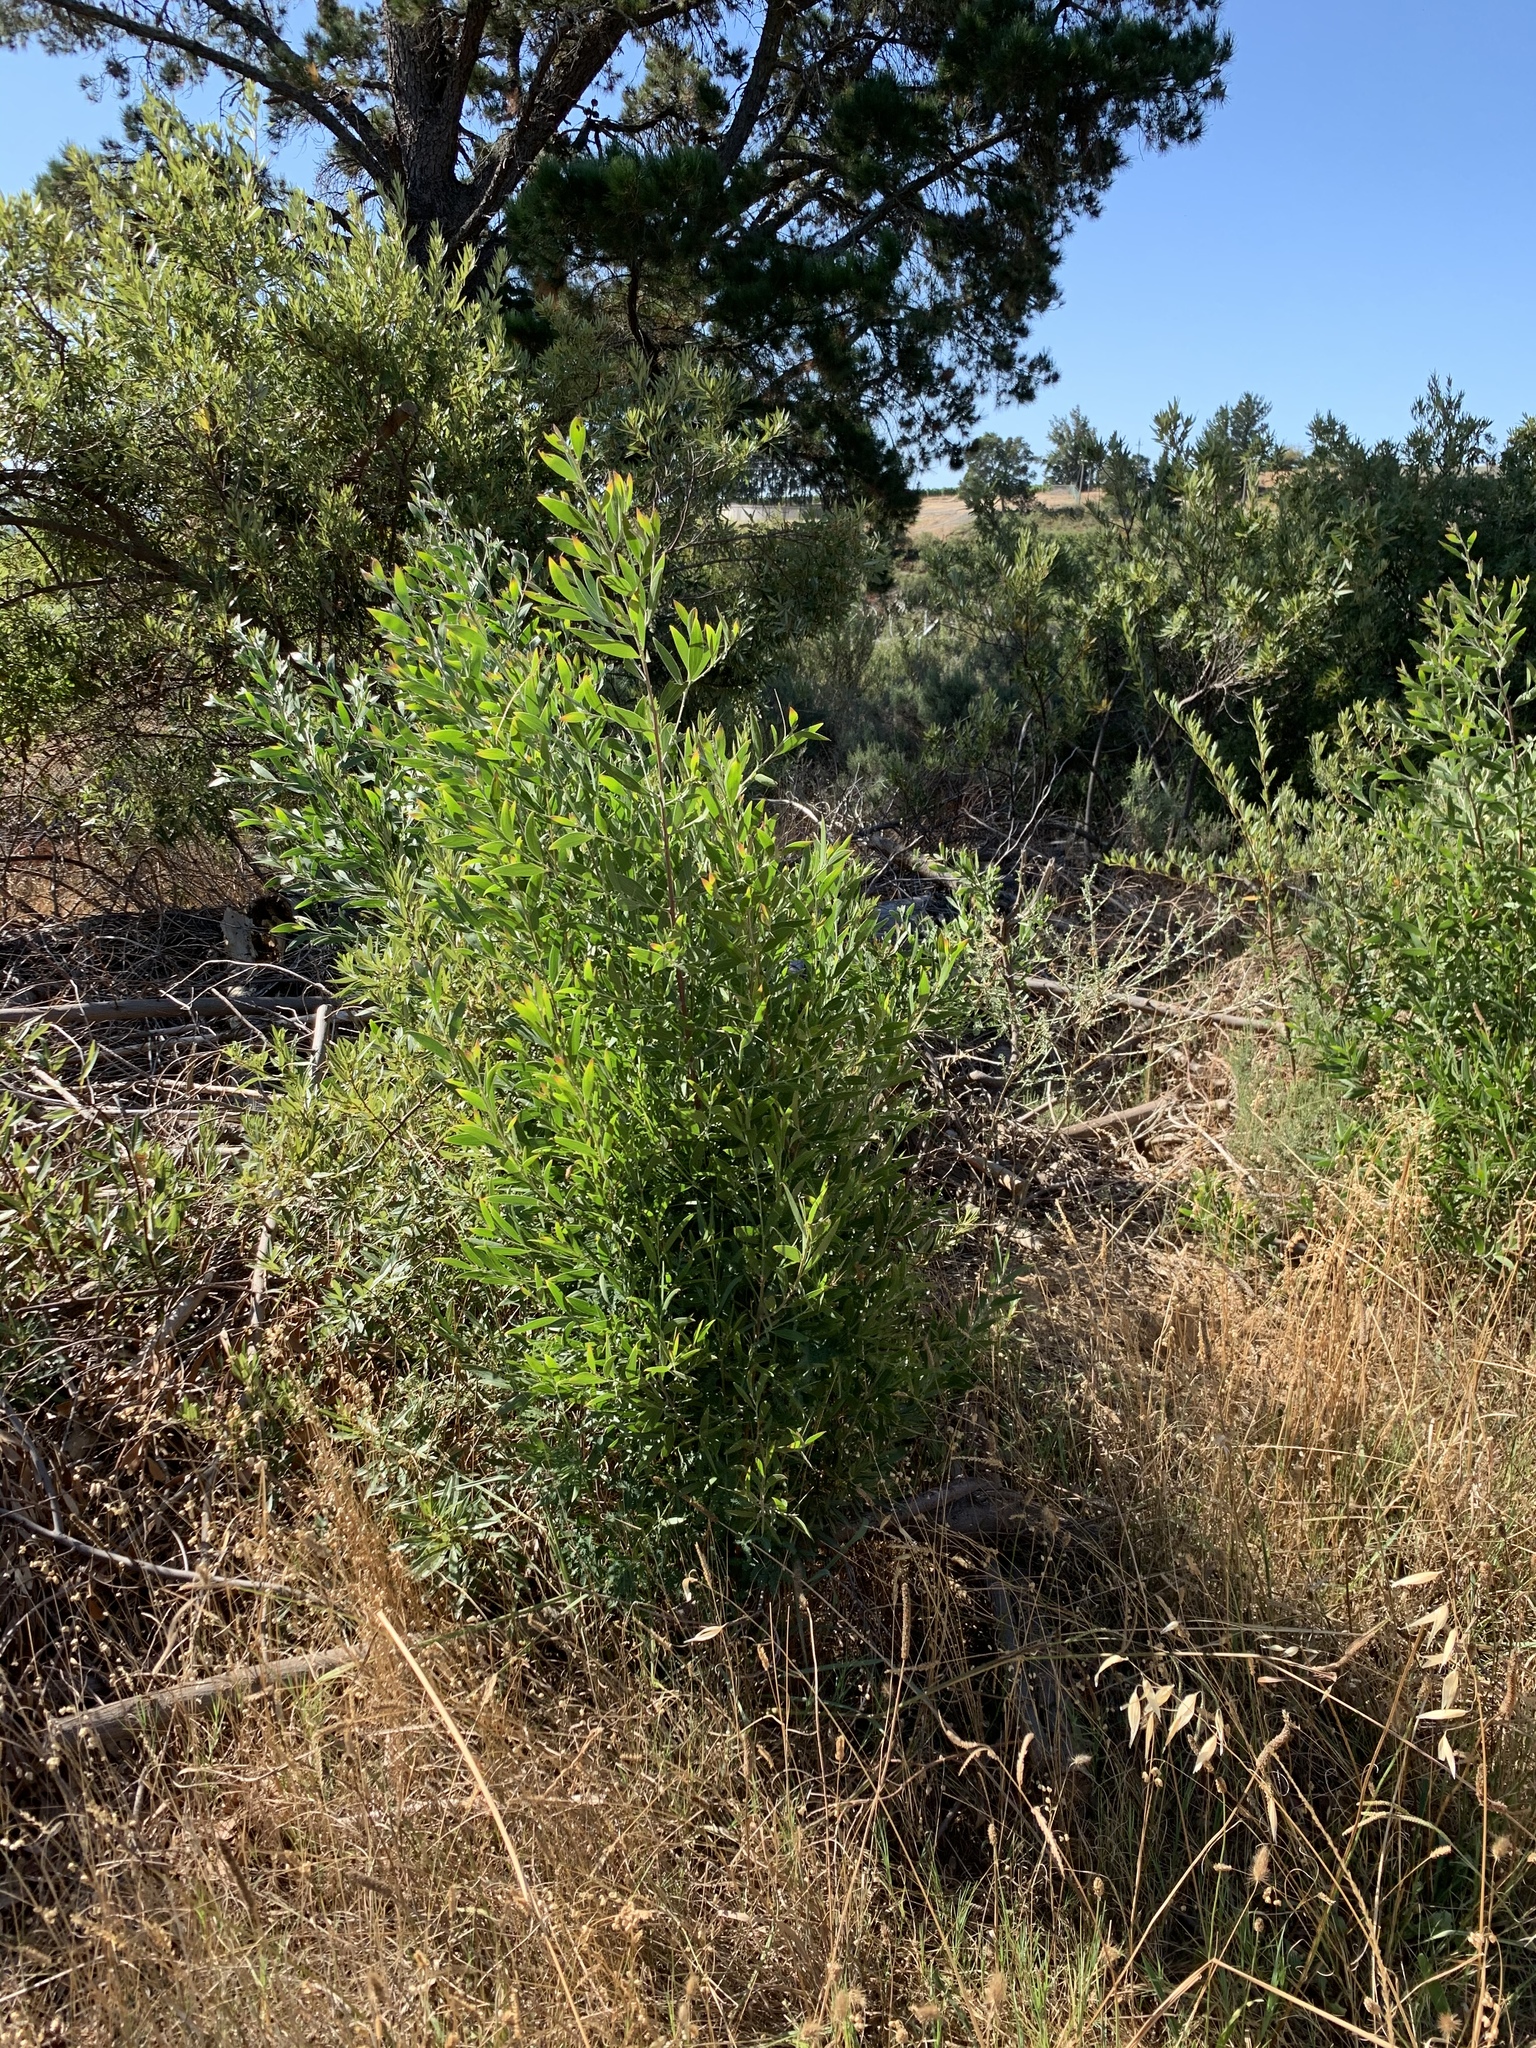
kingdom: Plantae
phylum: Tracheophyta
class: Magnoliopsida
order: Fabales
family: Fabaceae
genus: Acacia
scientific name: Acacia melanoxylon
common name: Blackwood
